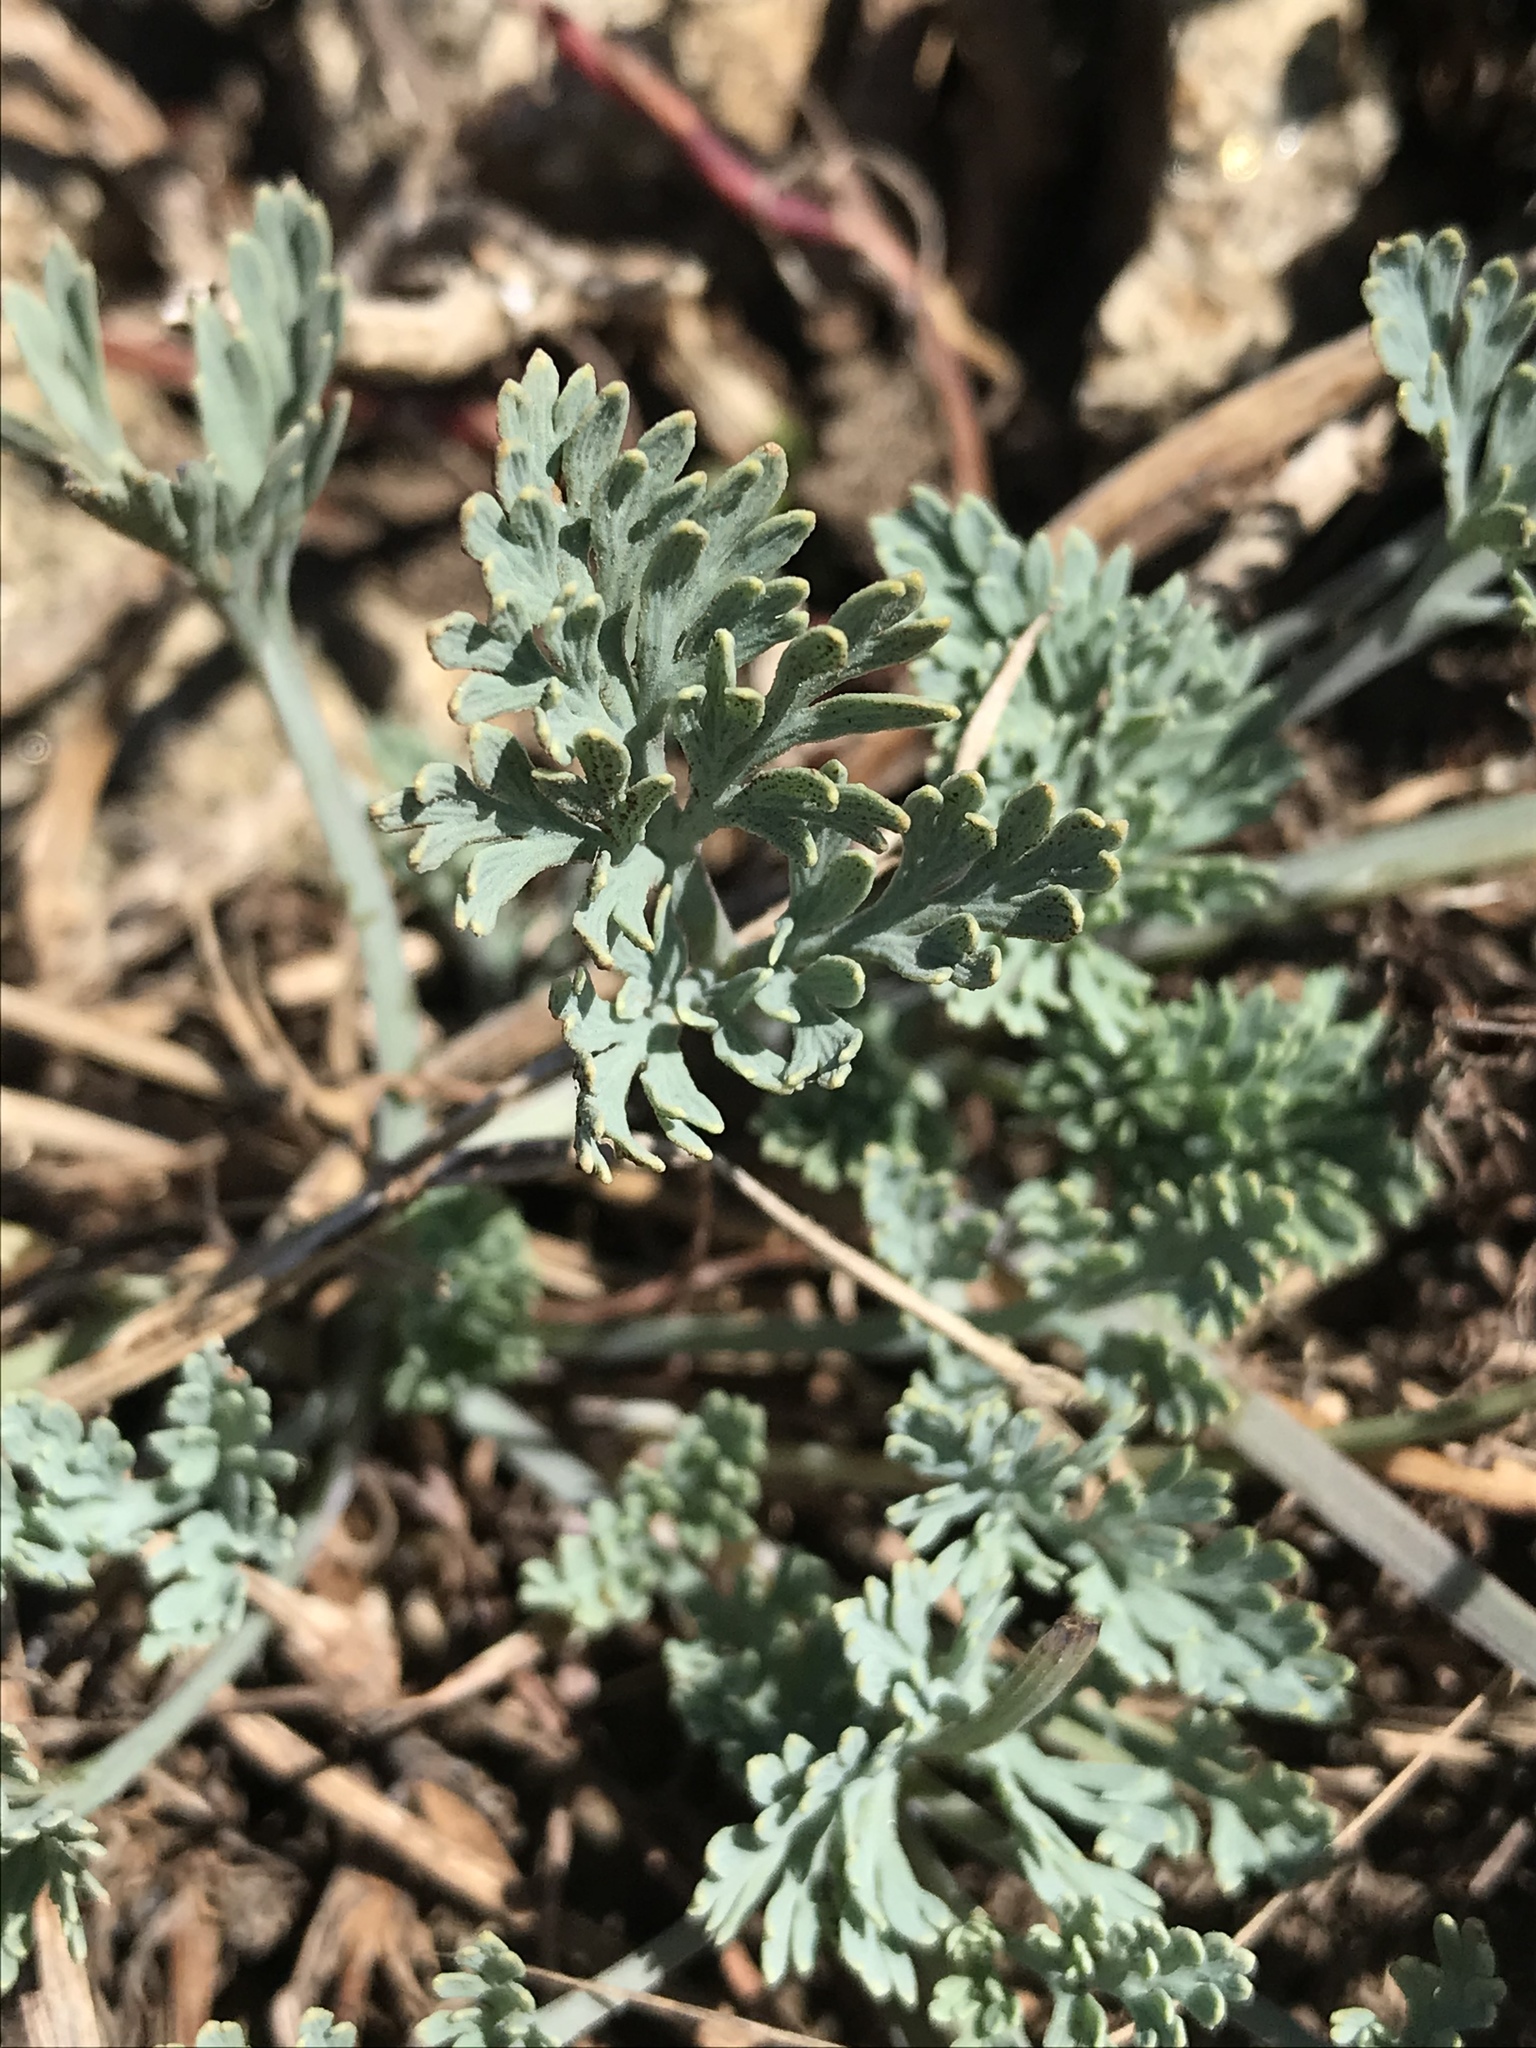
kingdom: Plantae
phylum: Tracheophyta
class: Magnoliopsida
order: Ranunculales
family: Papaveraceae
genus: Eschscholzia
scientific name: Eschscholzia californica
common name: California poppy
